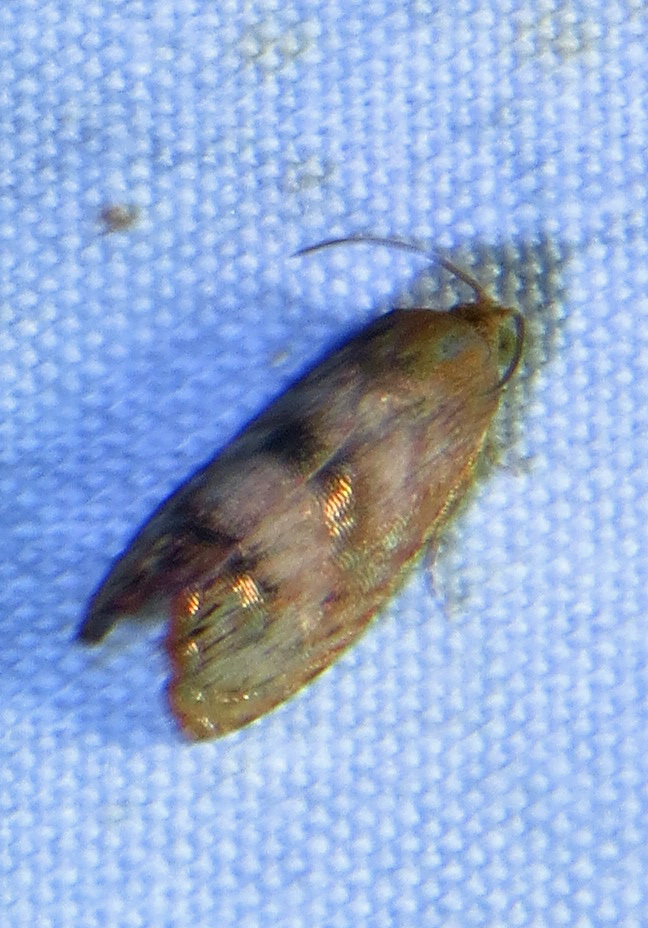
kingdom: Animalia
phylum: Arthropoda
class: Insecta
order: Lepidoptera
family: Tortricidae
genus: Cydia
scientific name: Cydia latiferreana
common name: Filbertworm moth
